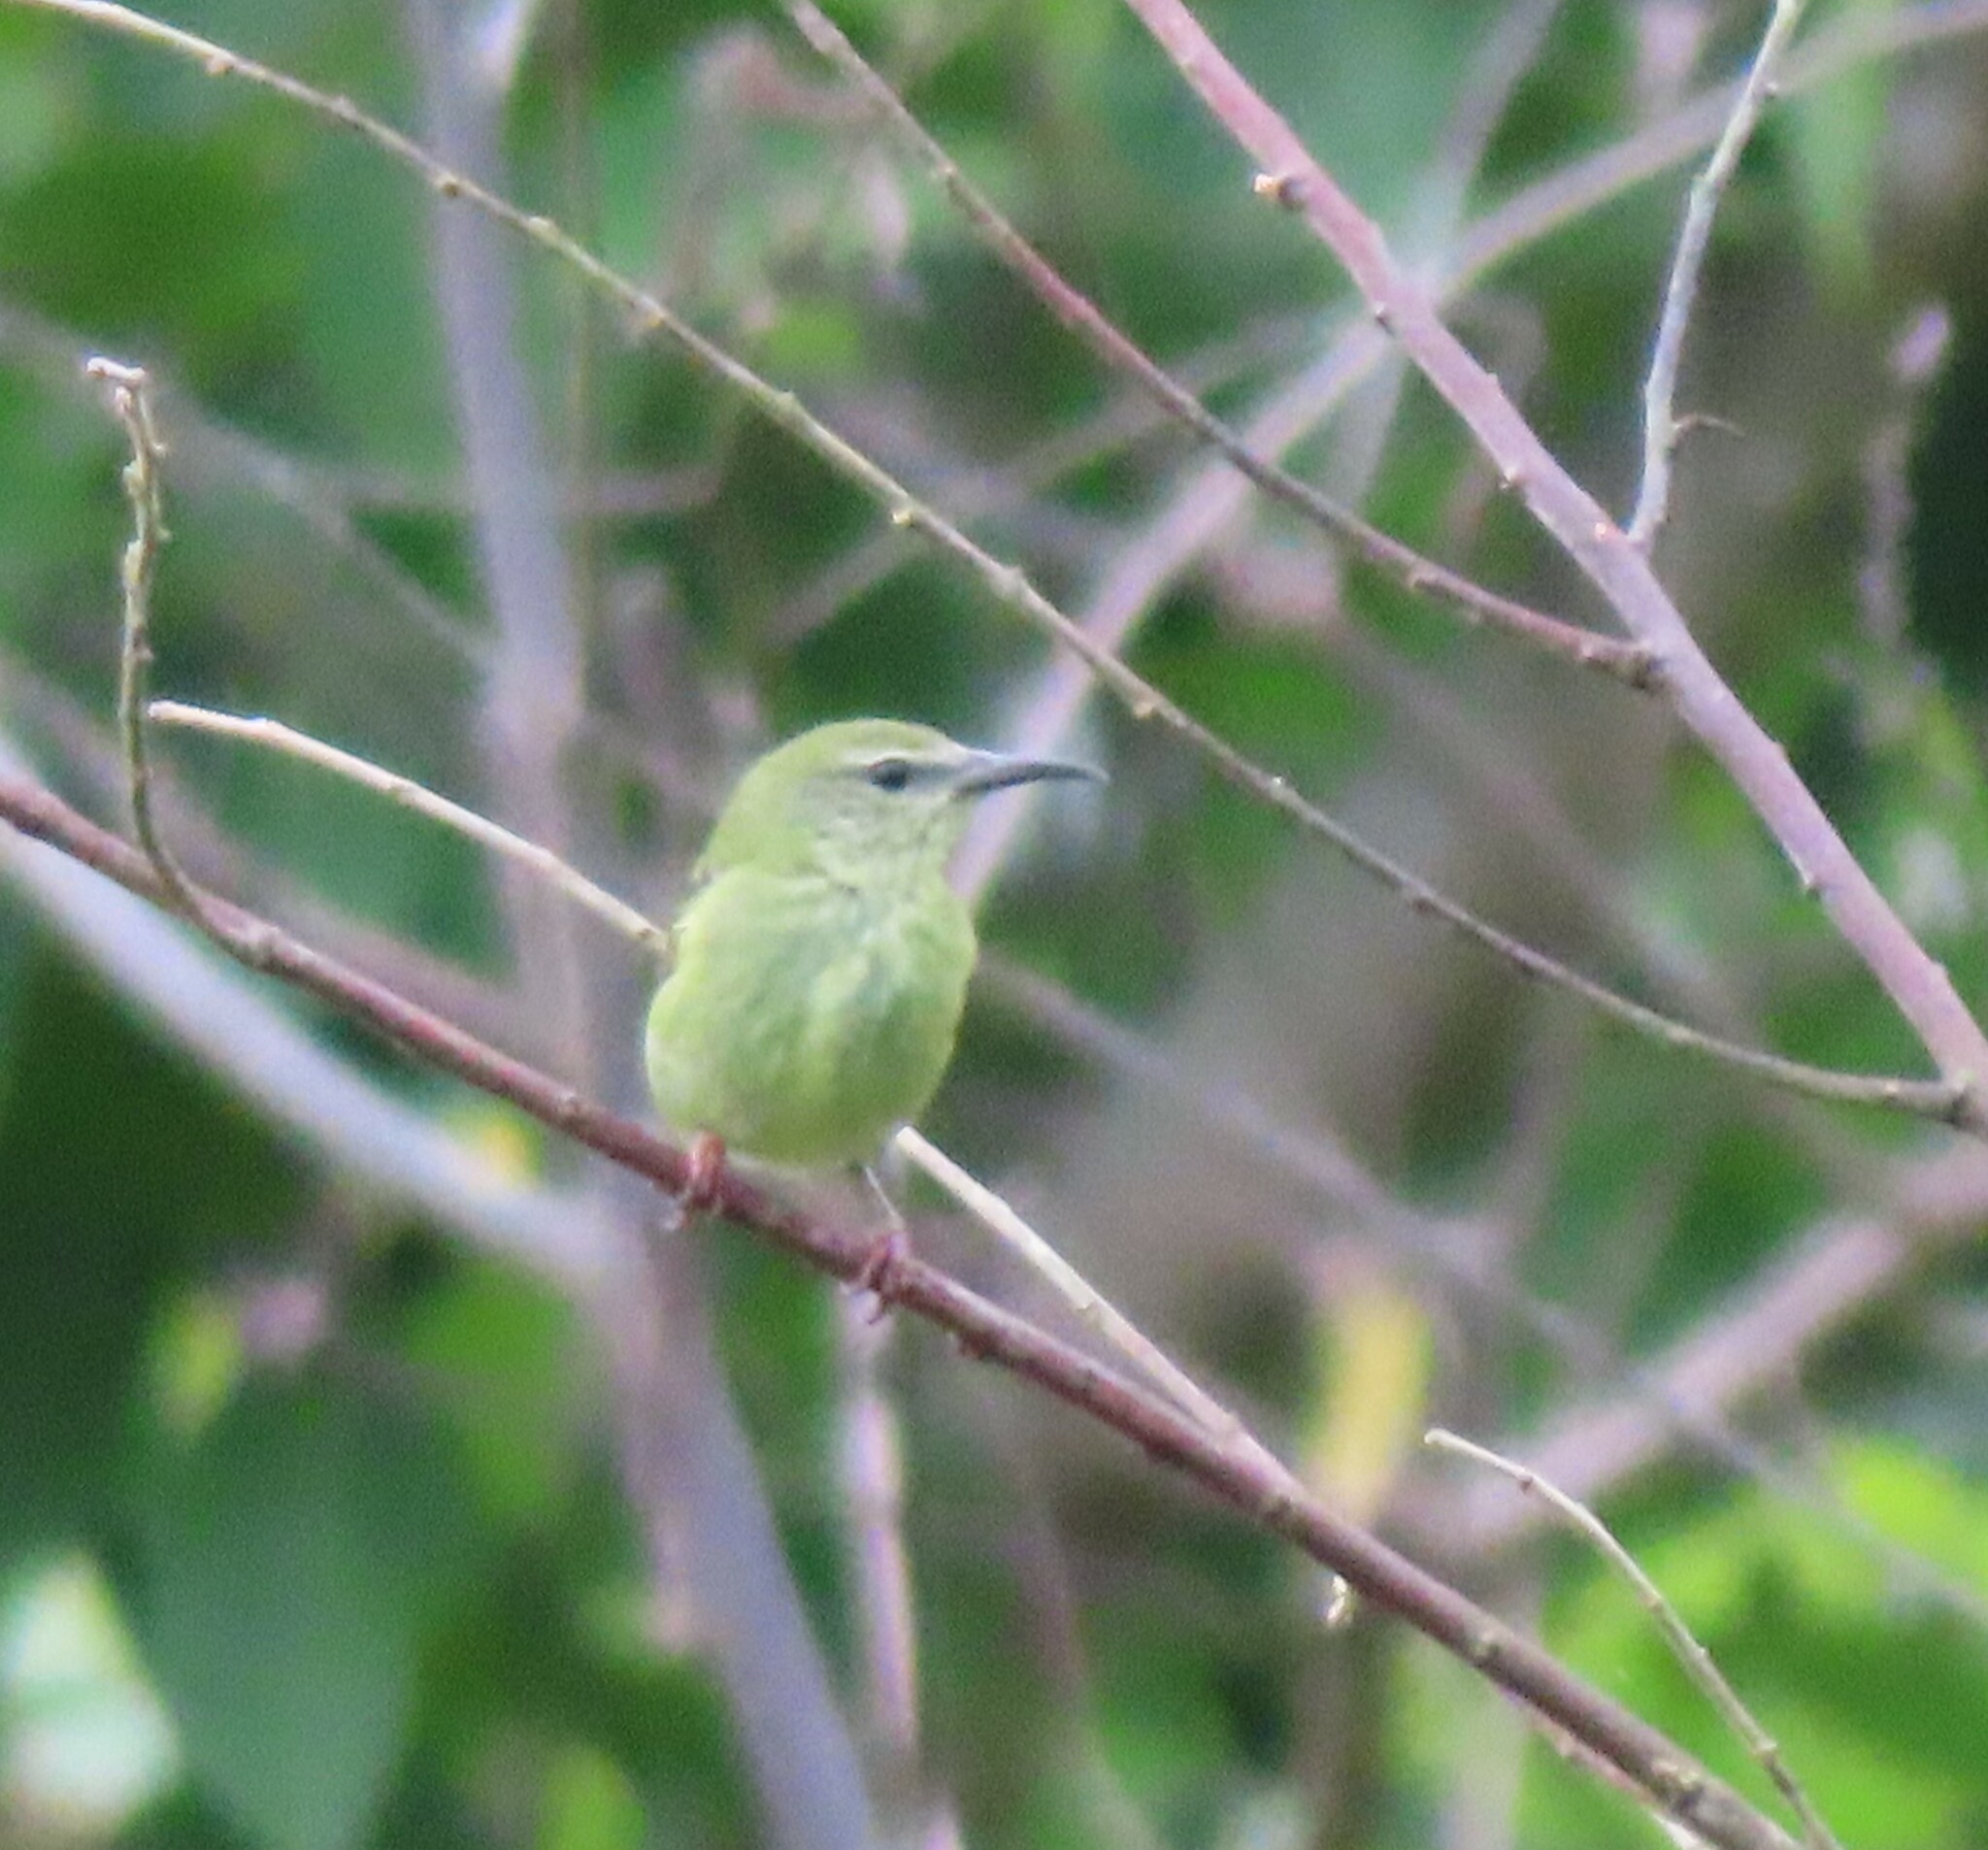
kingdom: Animalia
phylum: Chordata
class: Aves
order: Passeriformes
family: Thraupidae
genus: Cyanerpes
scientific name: Cyanerpes cyaneus
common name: Red-legged honeycreeper
